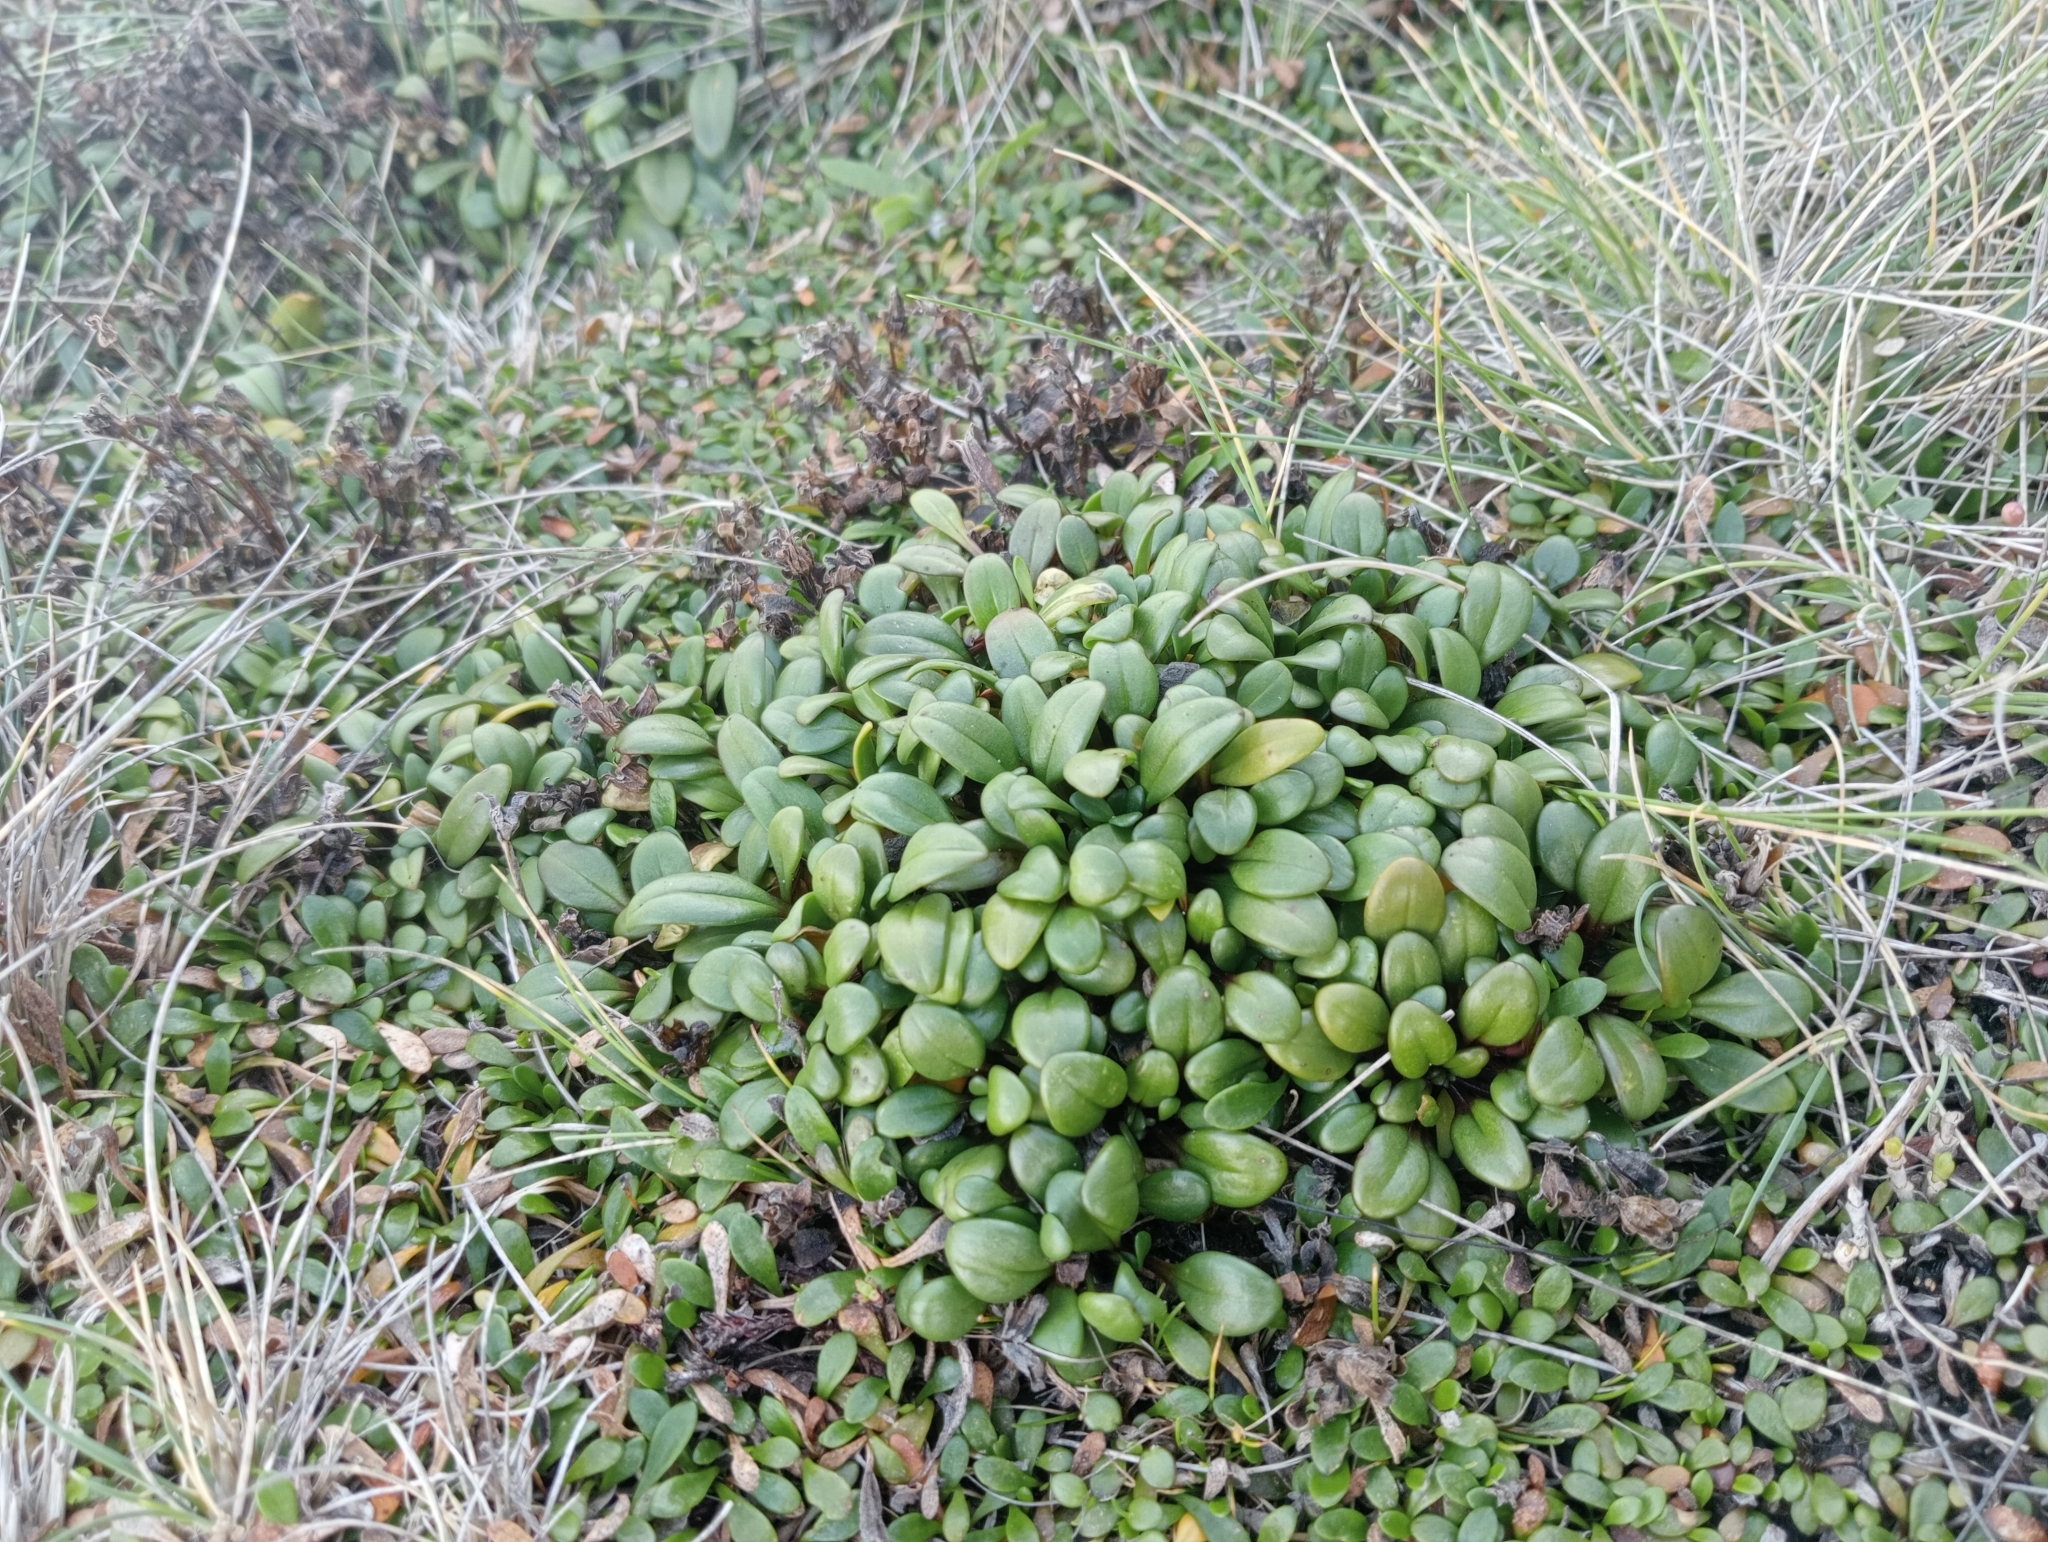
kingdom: Plantae
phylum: Tracheophyta
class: Magnoliopsida
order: Gentianales
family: Gentianaceae
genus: Gentianella
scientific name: Gentianella saxosa
